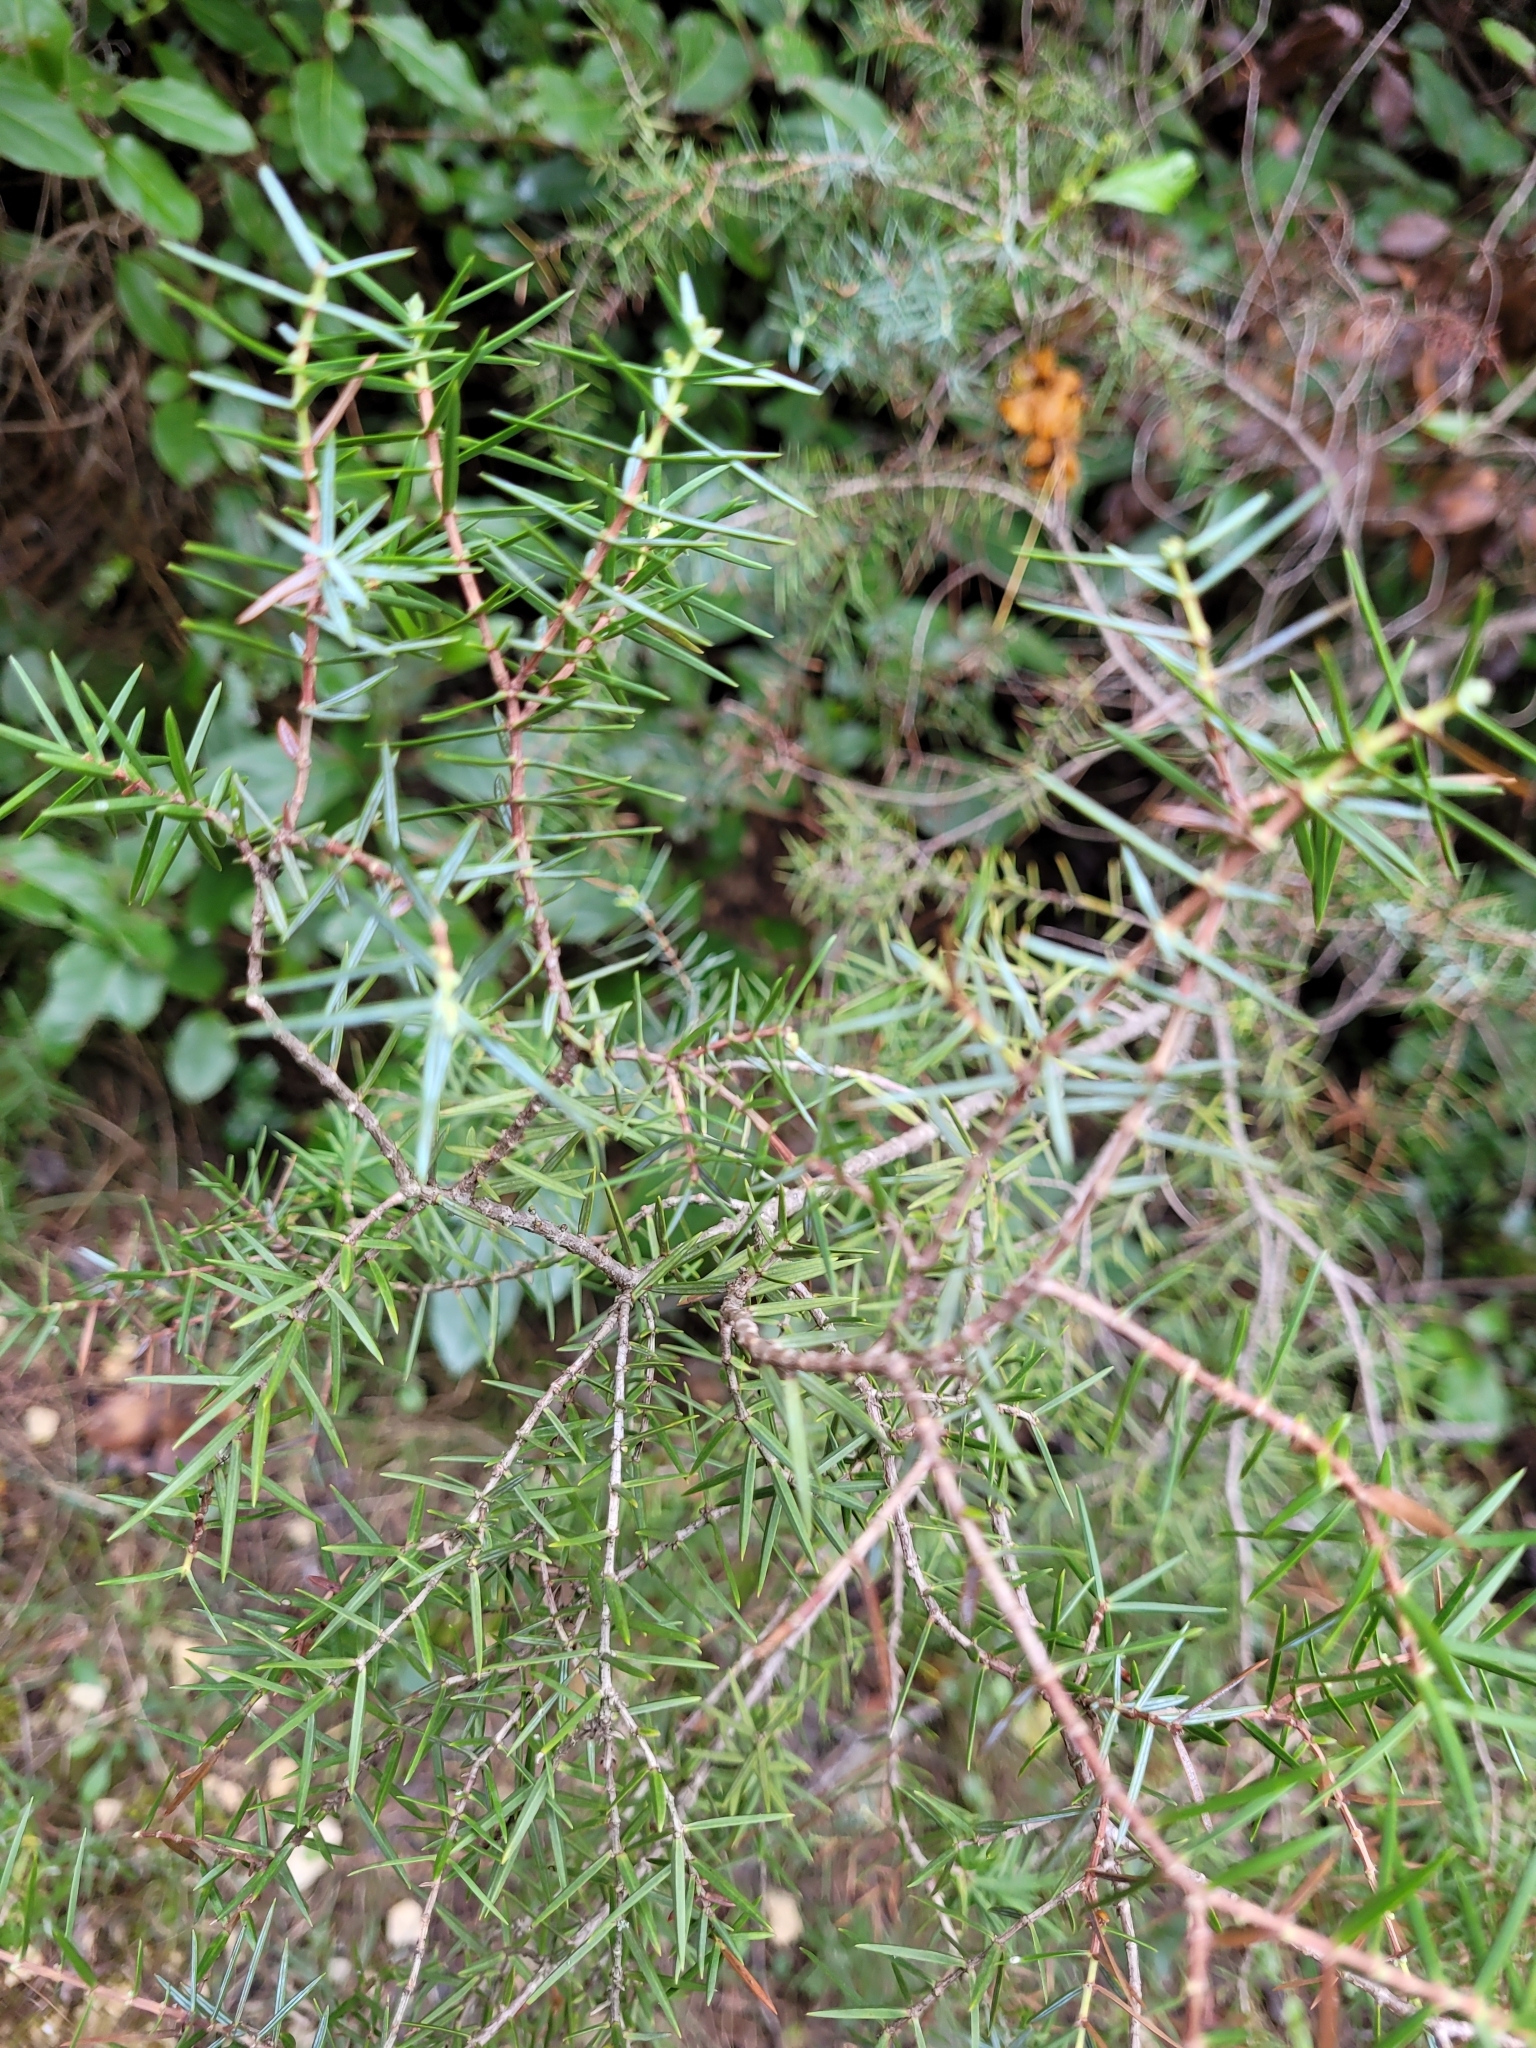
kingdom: Plantae
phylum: Tracheophyta
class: Pinopsida
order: Pinales
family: Cupressaceae
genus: Juniperus
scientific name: Juniperus oxycedrus
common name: Prickly juniper
